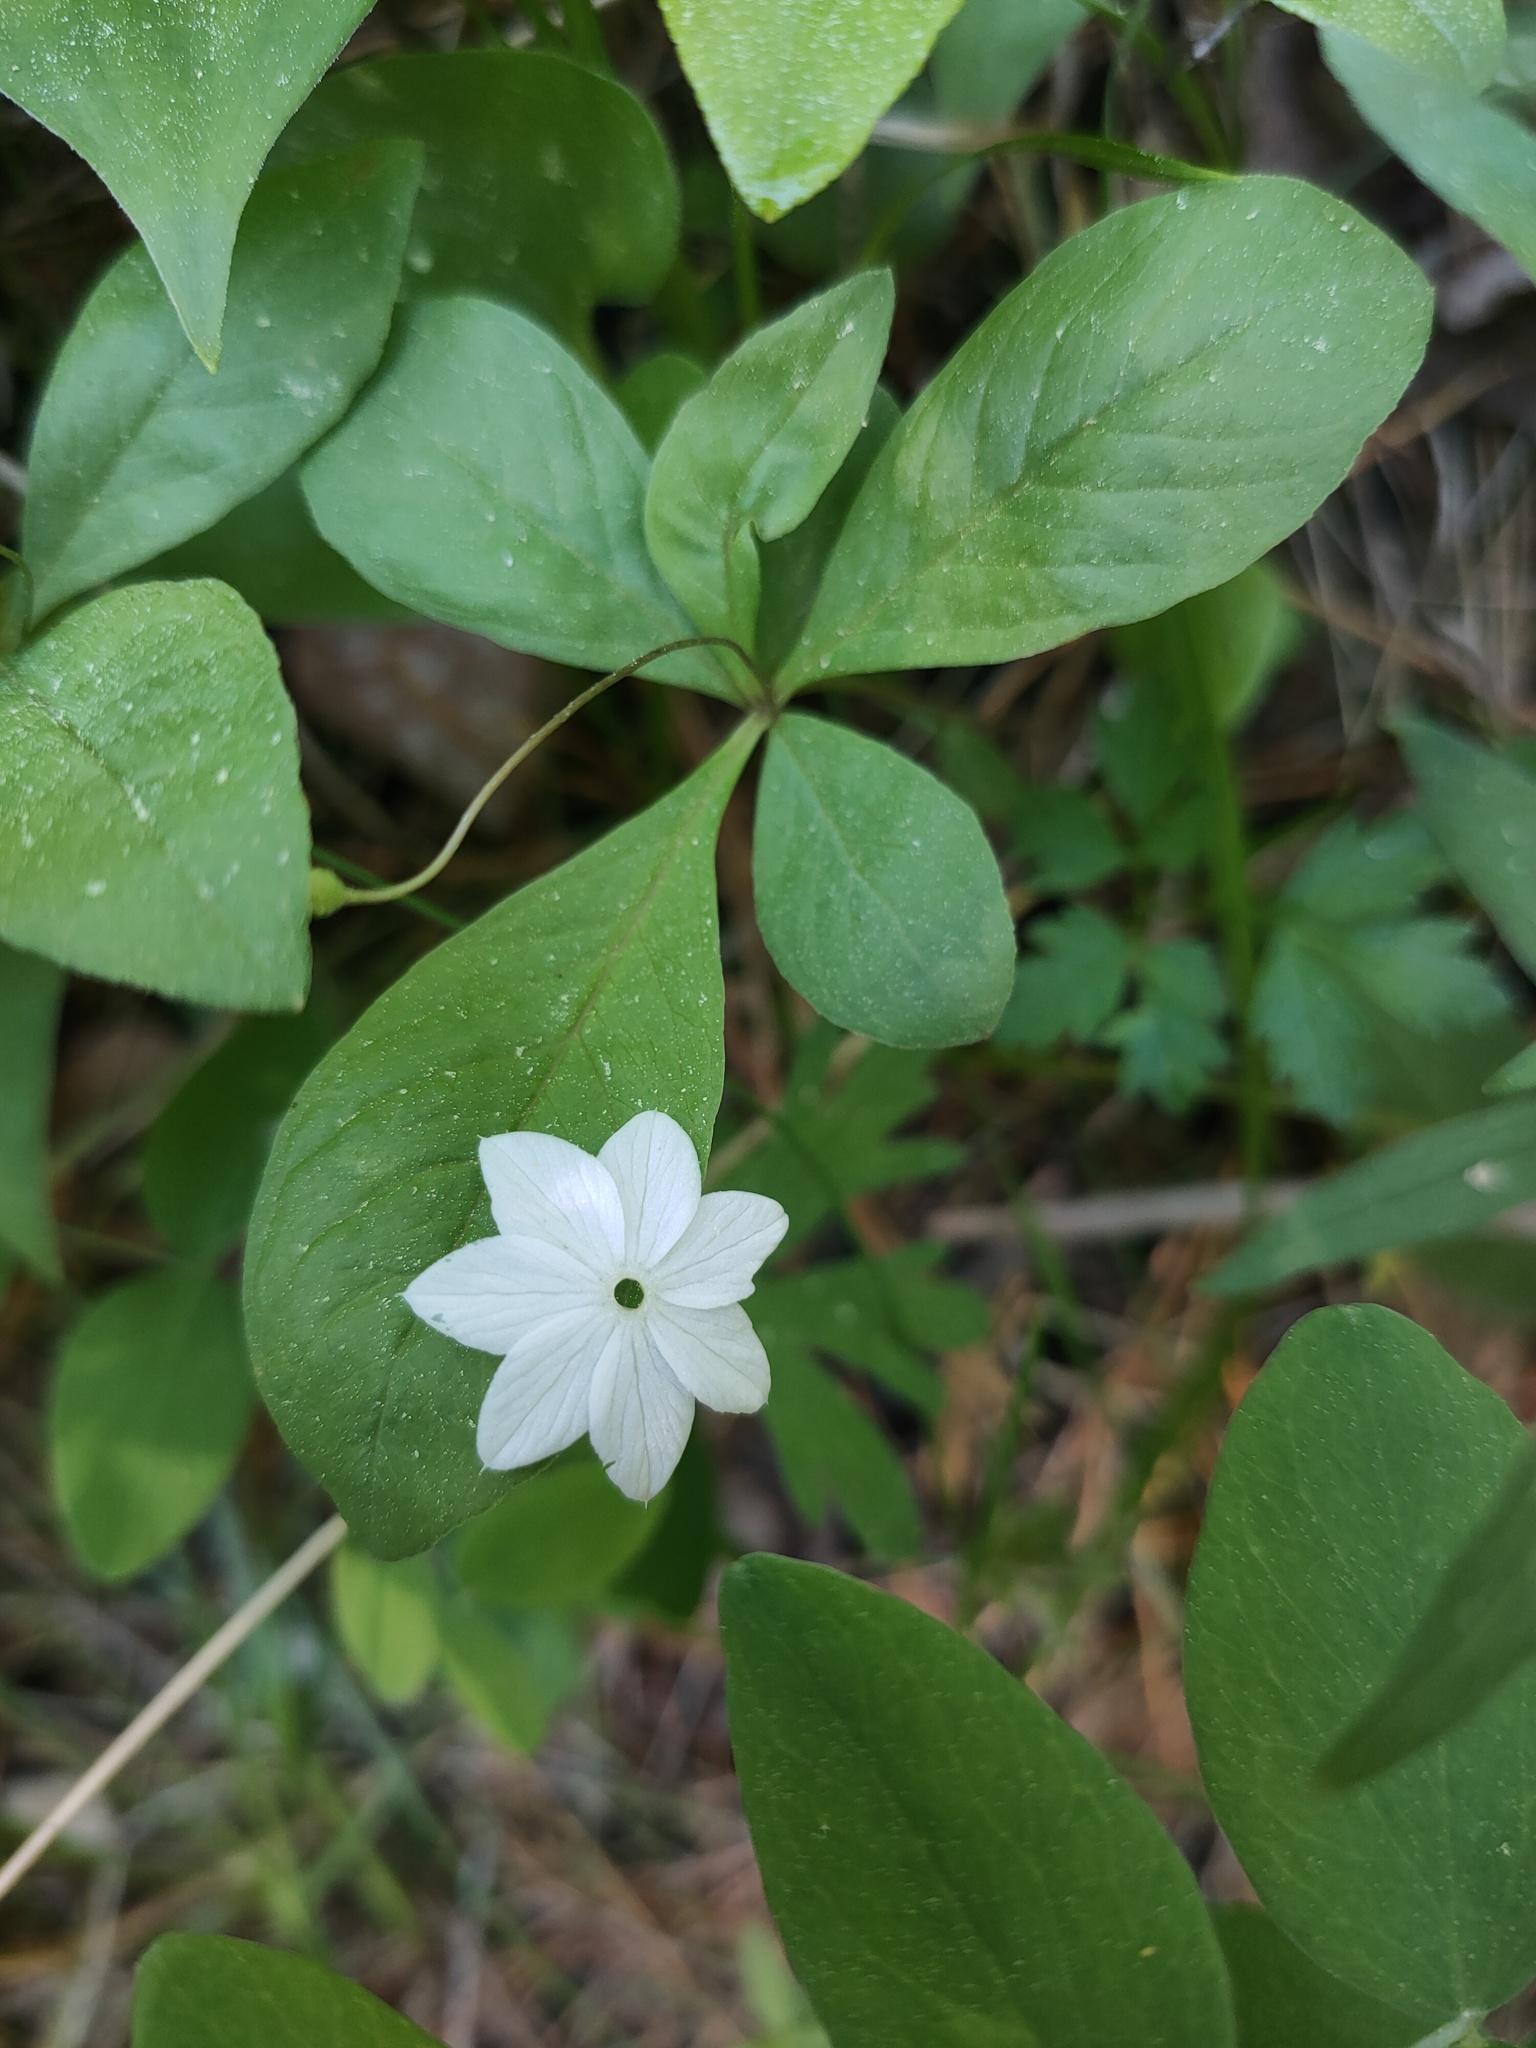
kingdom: Plantae
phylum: Tracheophyta
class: Magnoliopsida
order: Ericales
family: Primulaceae
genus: Lysimachia
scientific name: Lysimachia europaea
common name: Arctic starflower
